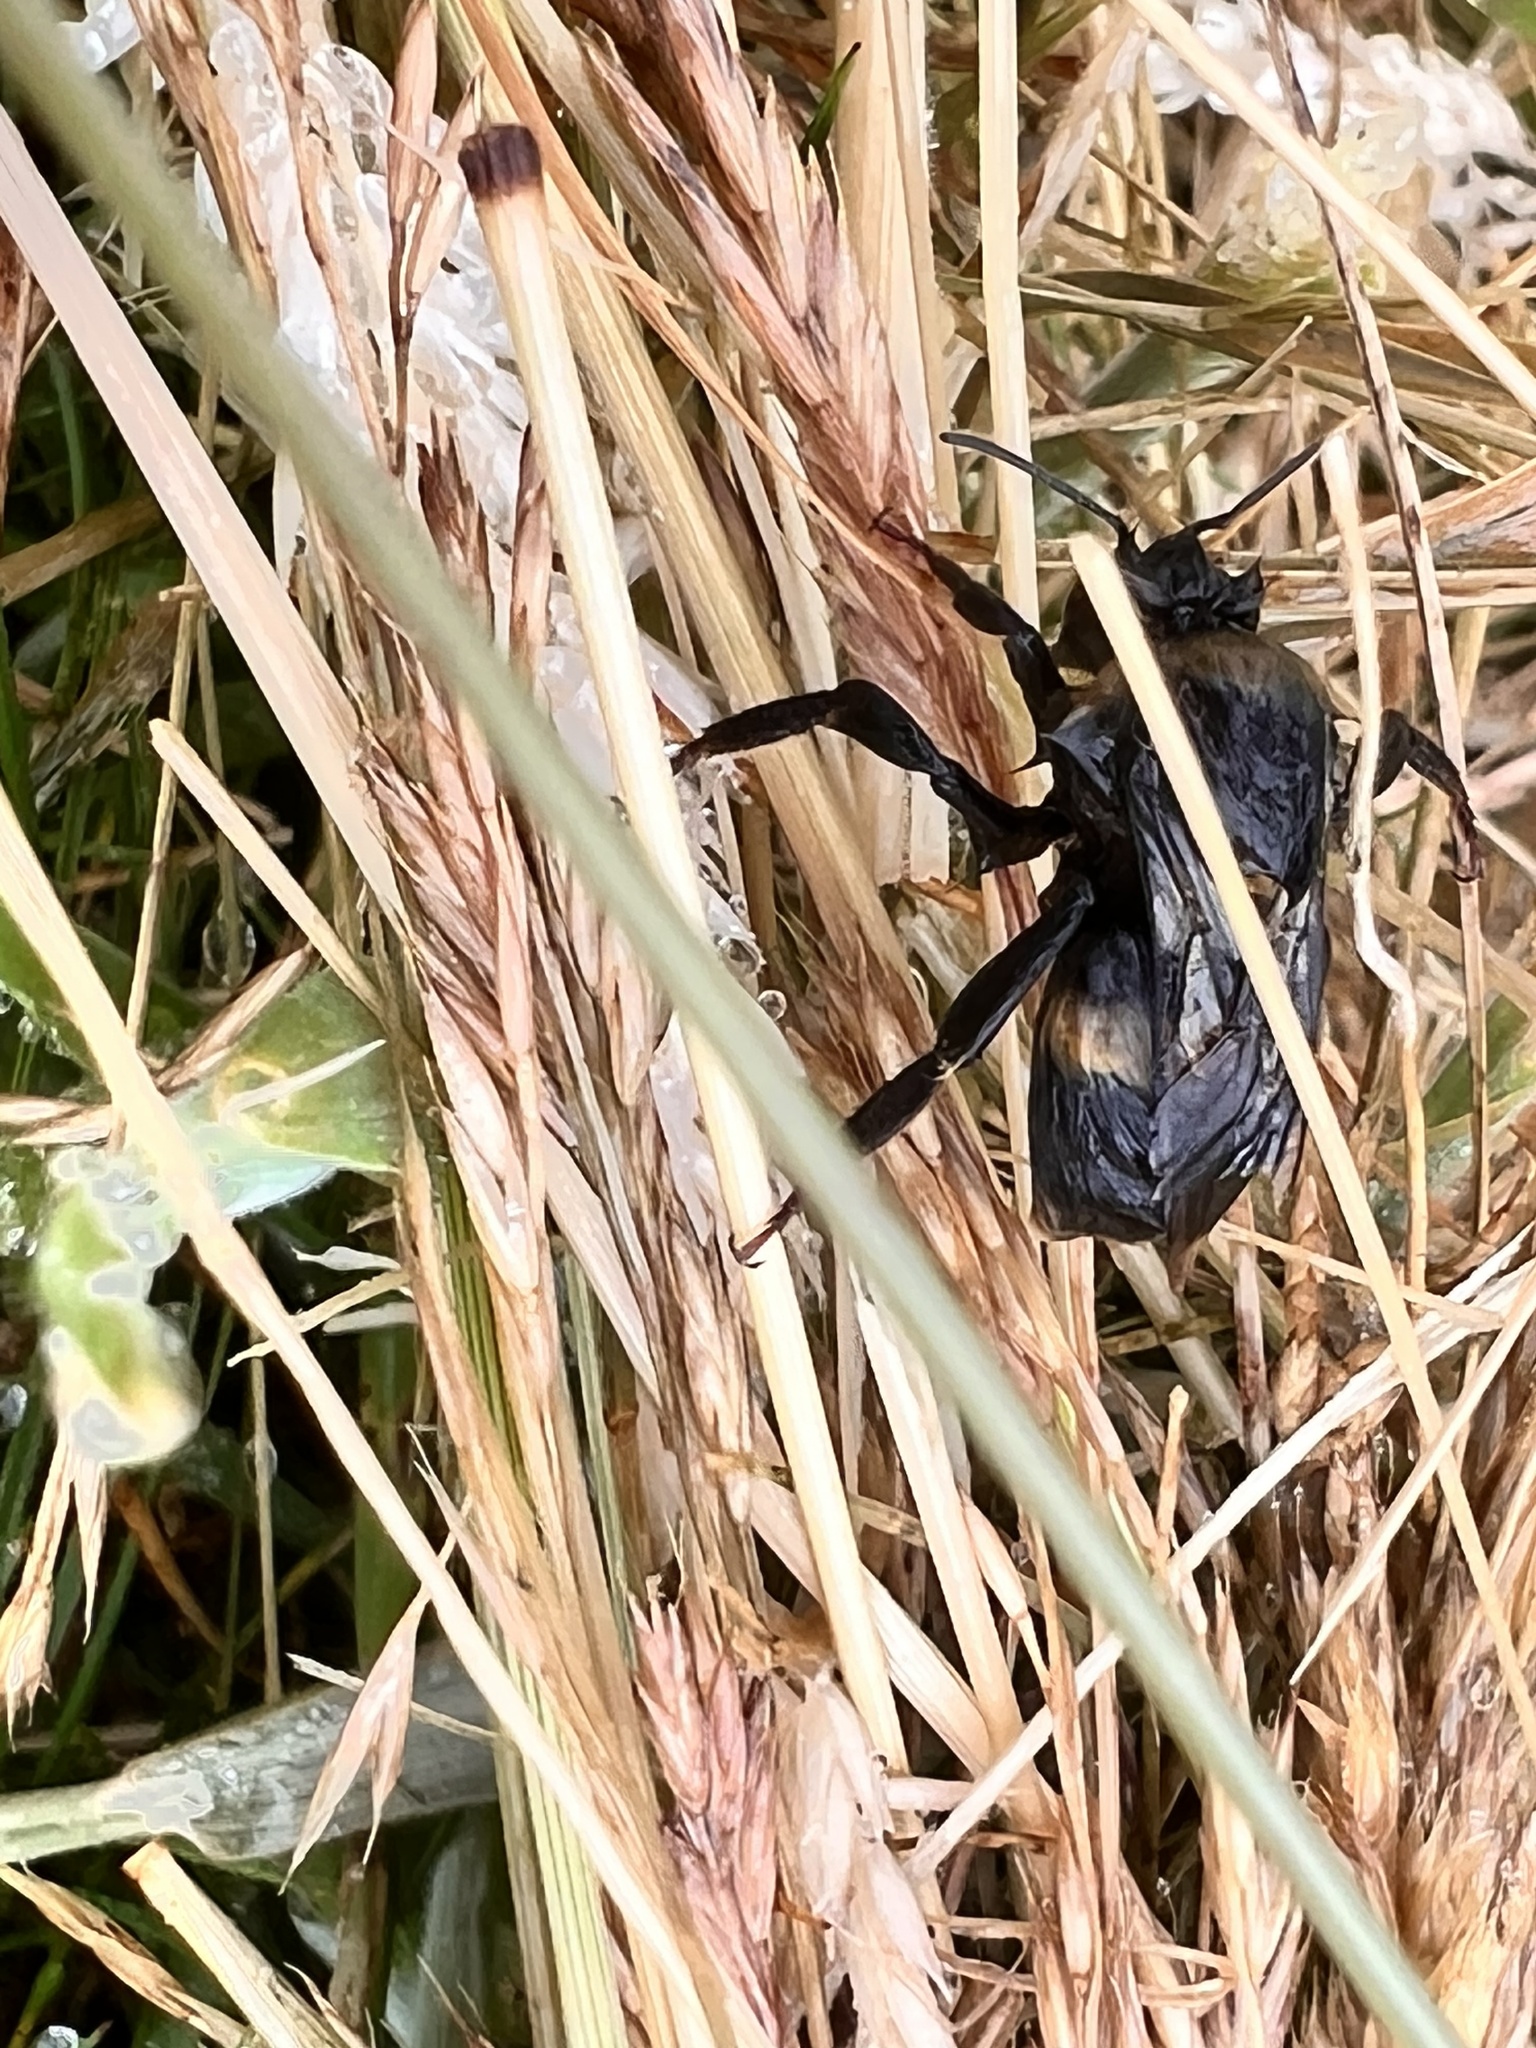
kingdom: Animalia
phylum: Arthropoda
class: Insecta
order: Hymenoptera
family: Apidae
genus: Bombus
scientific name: Bombus terrestris
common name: Buff-tailed bumblebee
